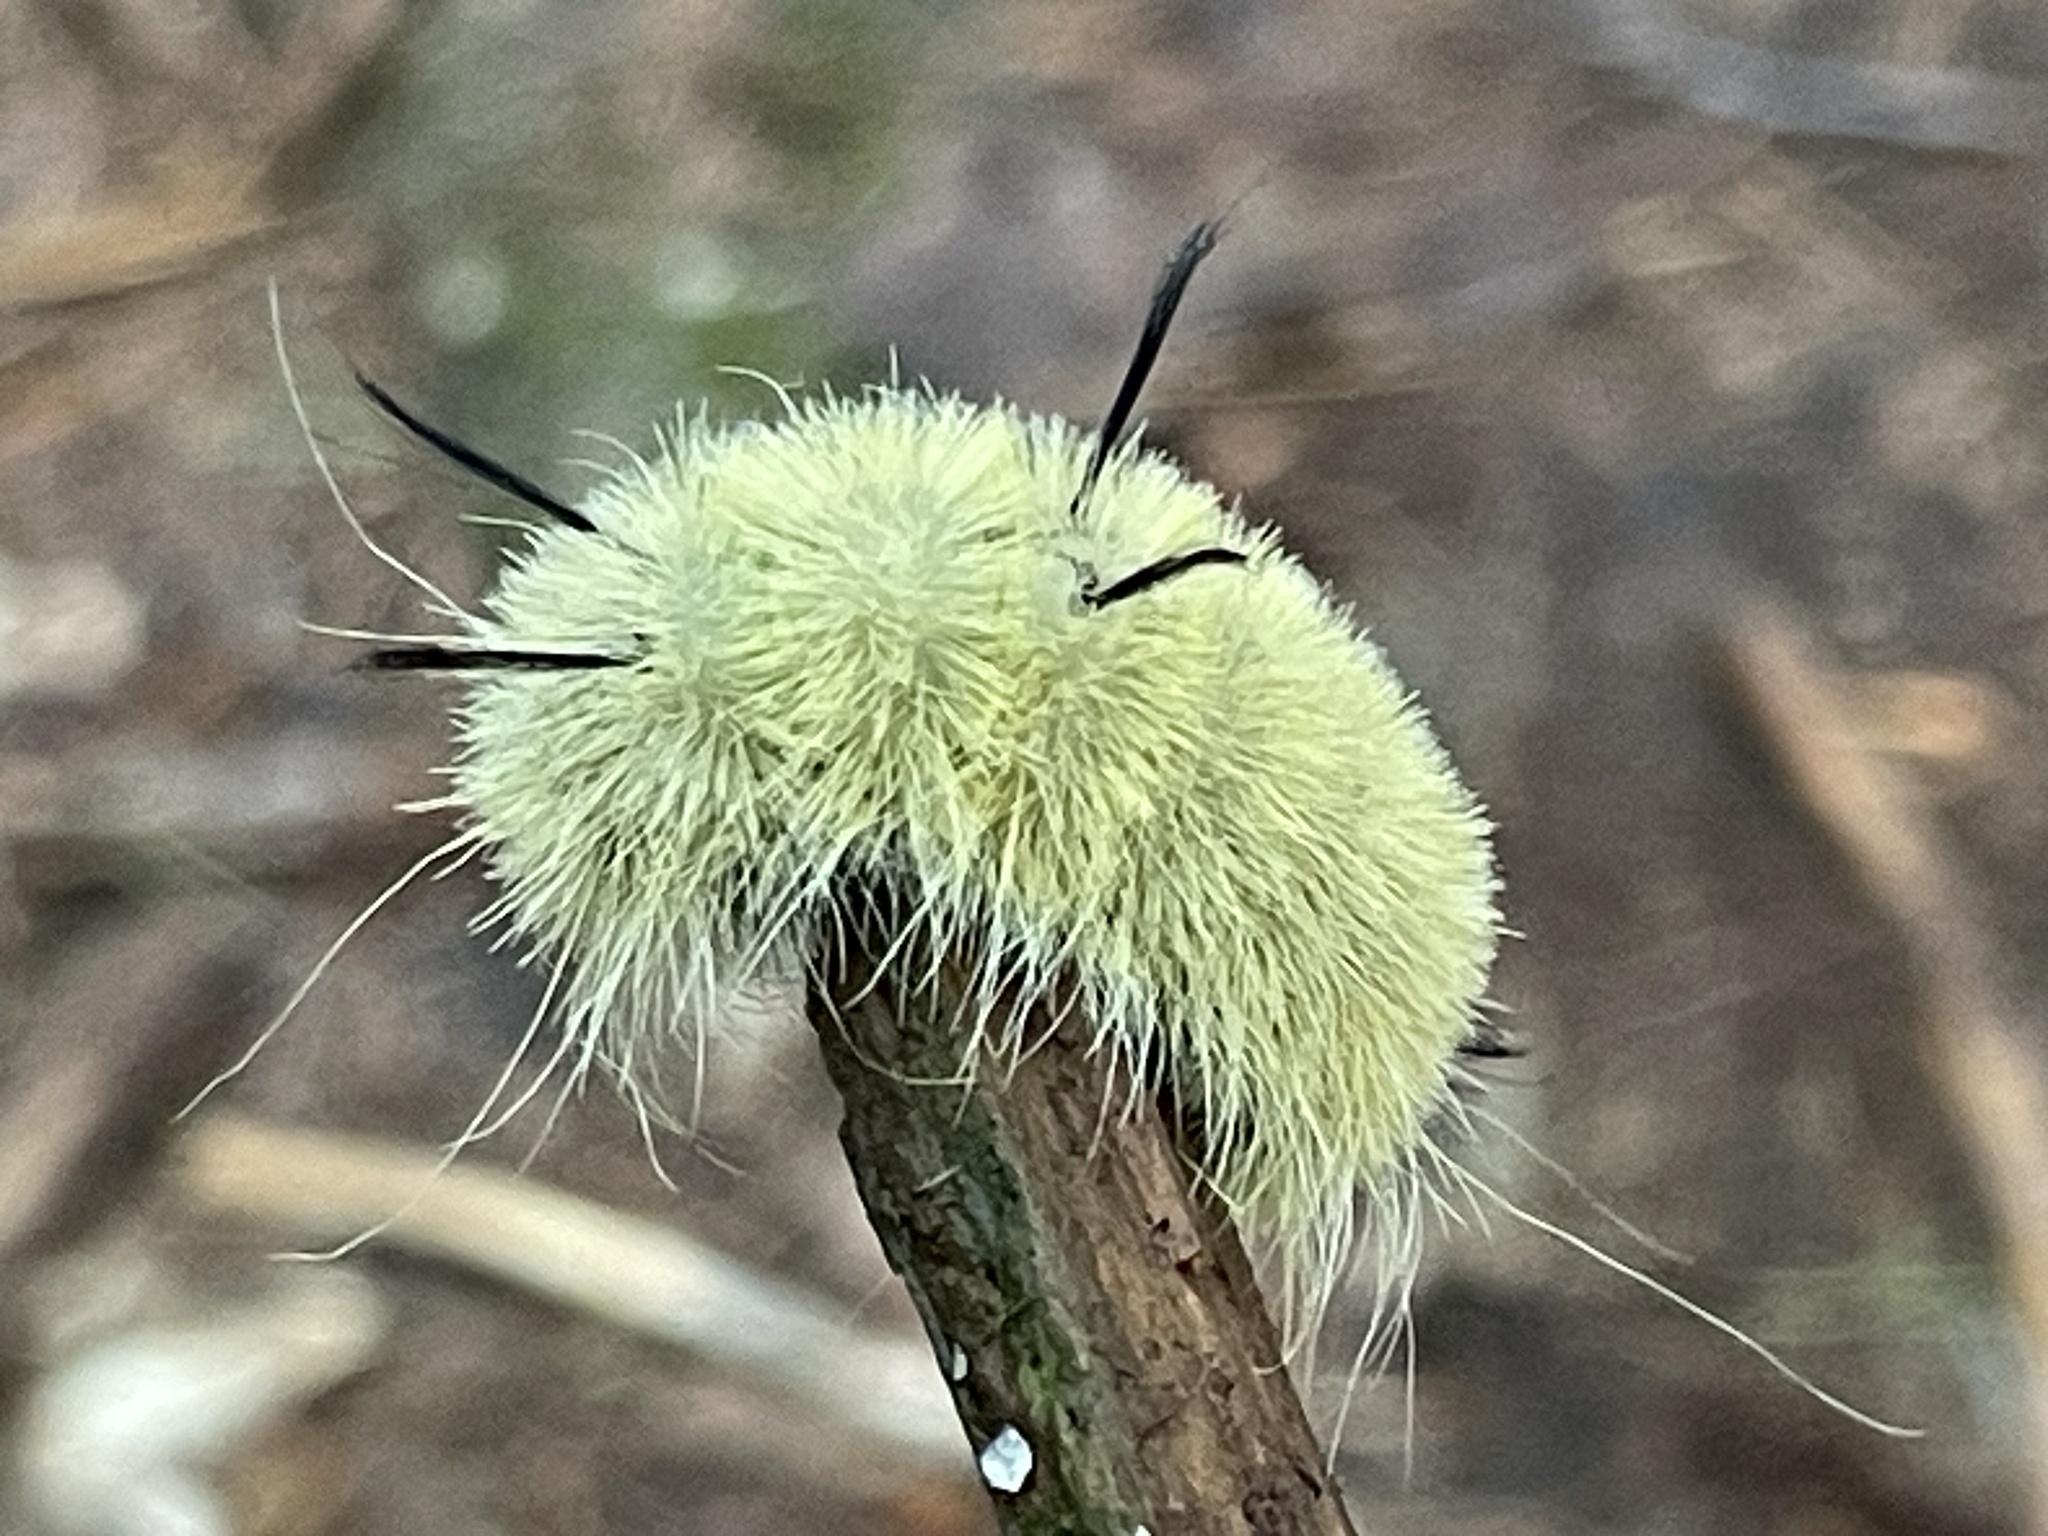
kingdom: Animalia
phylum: Arthropoda
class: Insecta
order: Lepidoptera
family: Noctuidae
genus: Acronicta
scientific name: Acronicta americana
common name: American dagger
